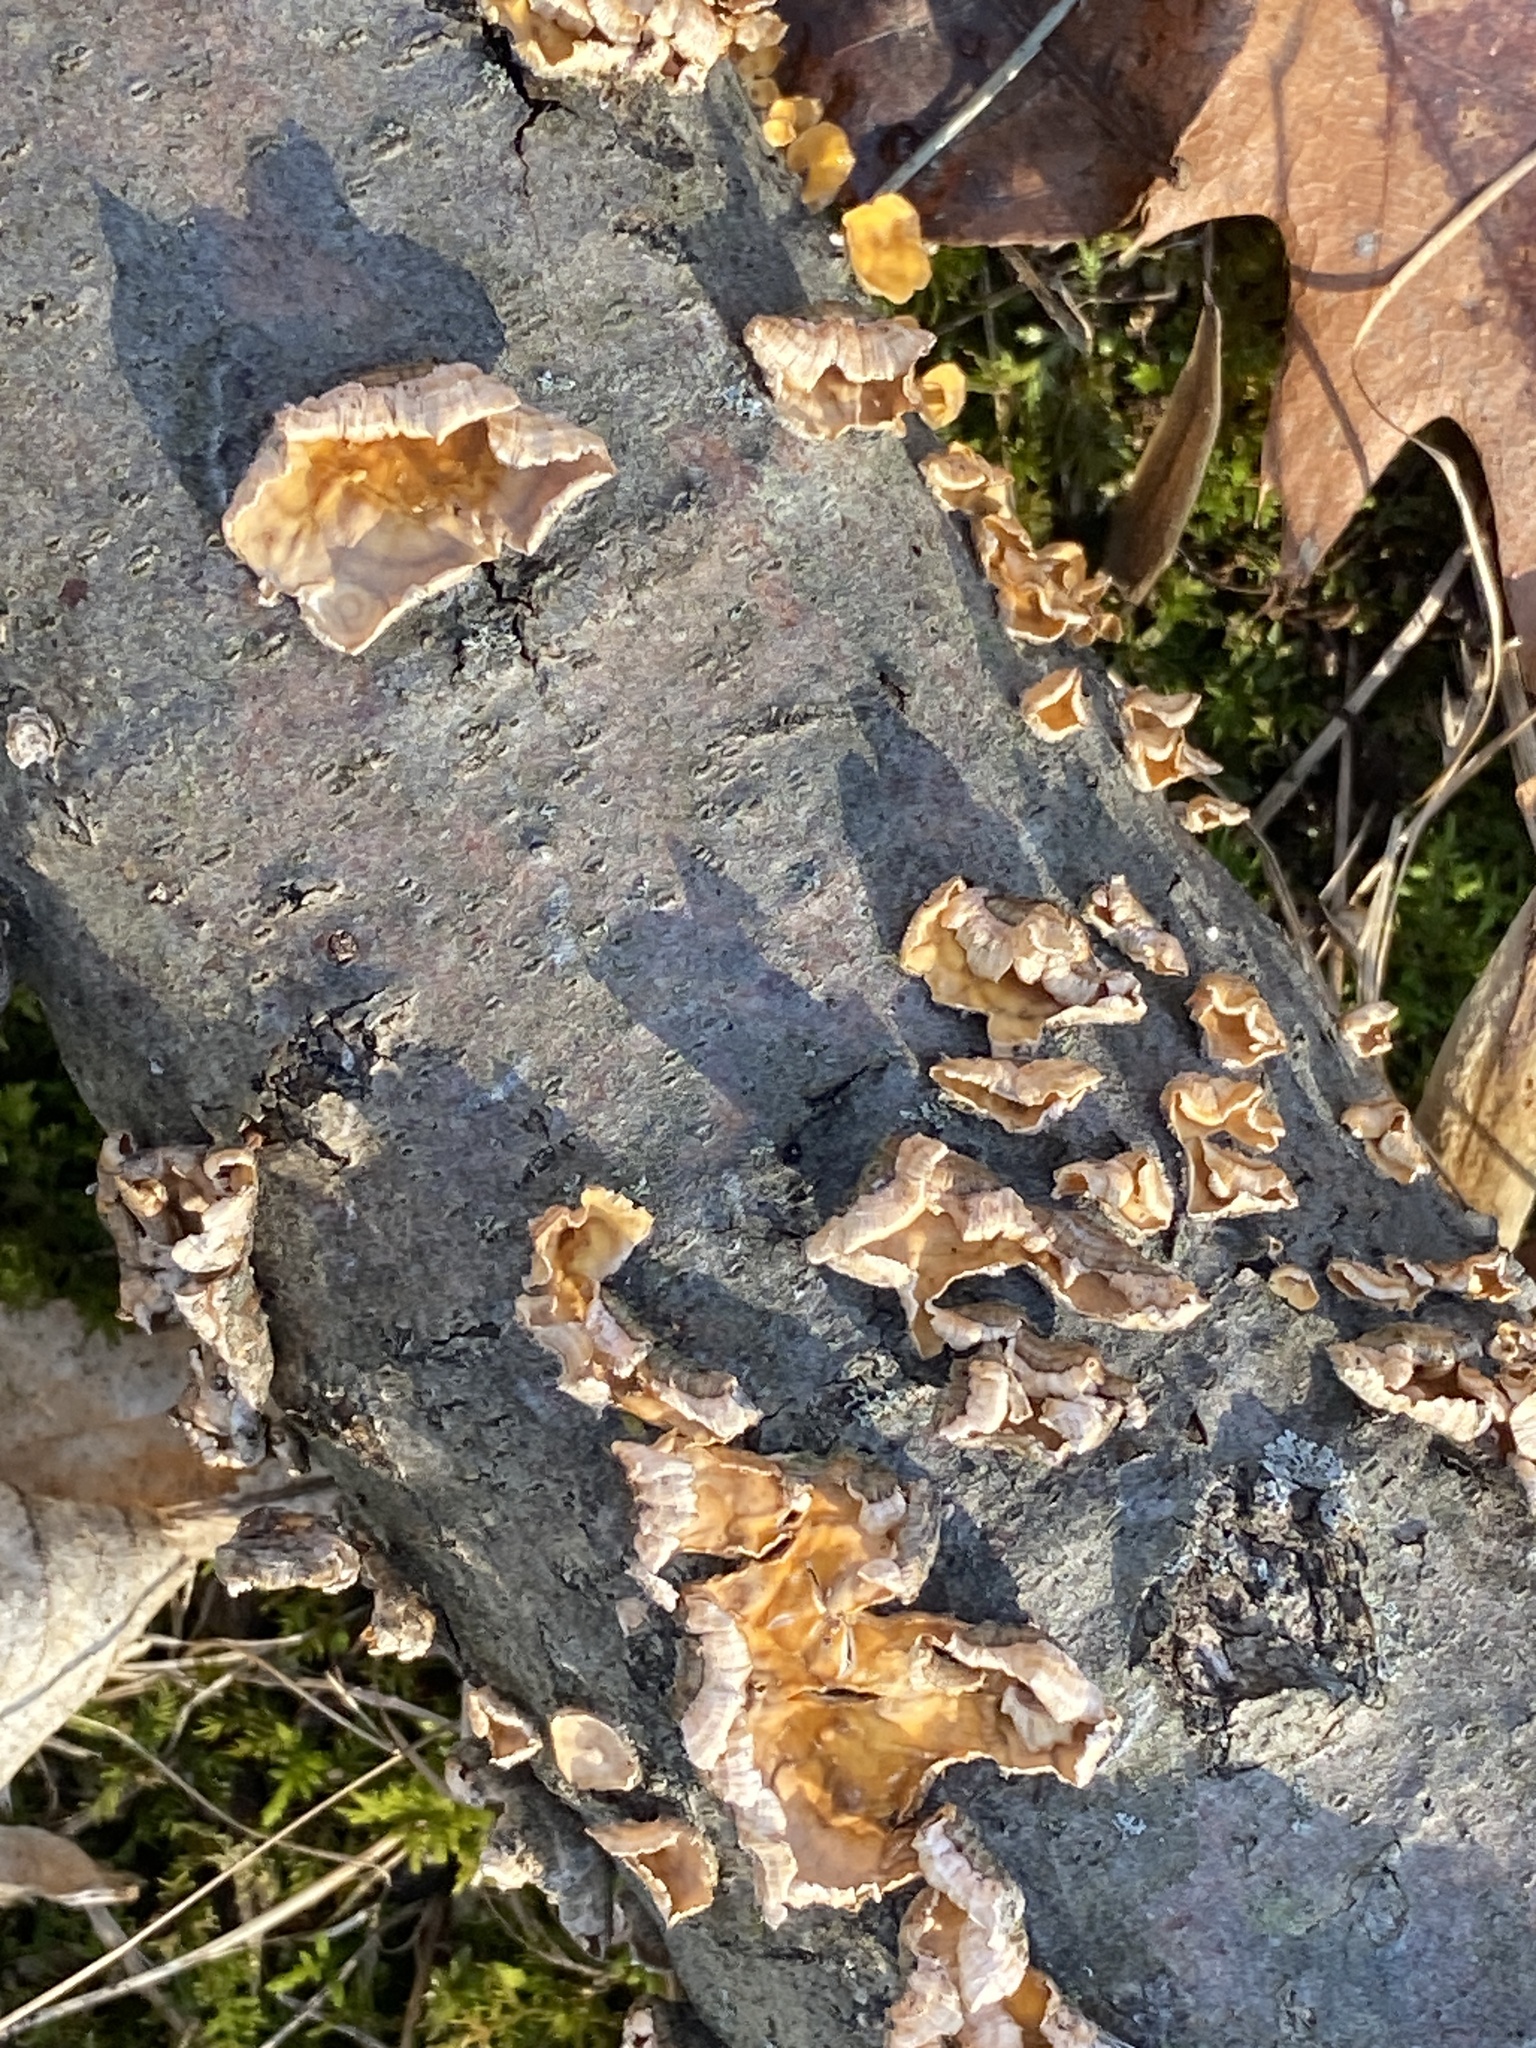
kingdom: Fungi
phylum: Basidiomycota
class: Agaricomycetes
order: Russulales
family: Stereaceae
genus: Stereum
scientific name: Stereum complicatum
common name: Crowded parchment
